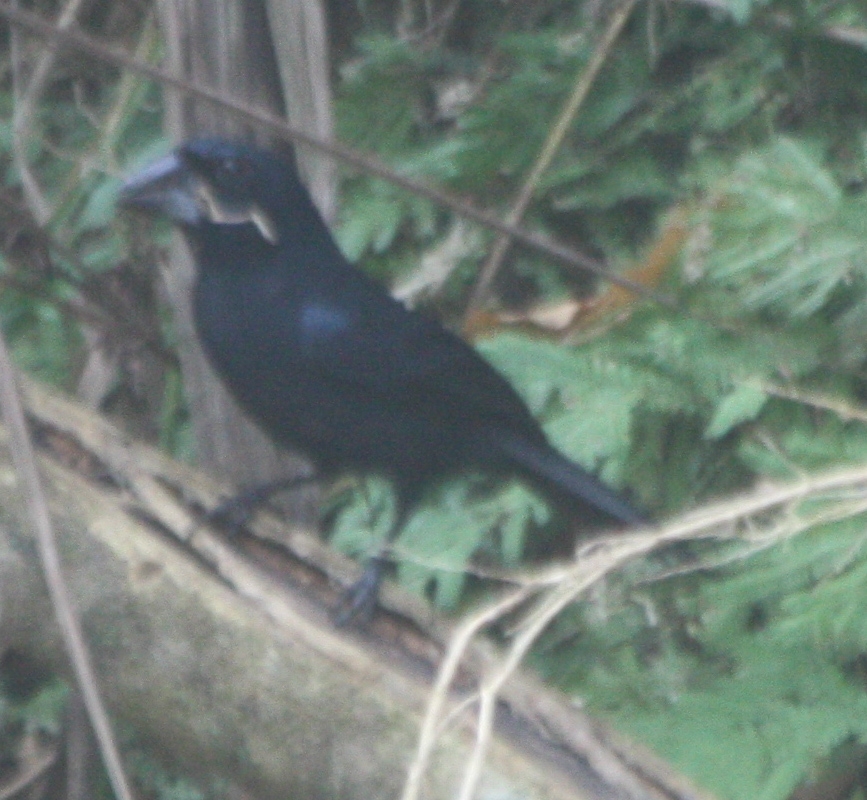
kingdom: Animalia
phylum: Chordata
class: Aves
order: Passeriformes
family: Cardinalidae
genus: Cyanocompsa
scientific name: Cyanocompsa cyanoides
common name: Blue-black grosbeak
